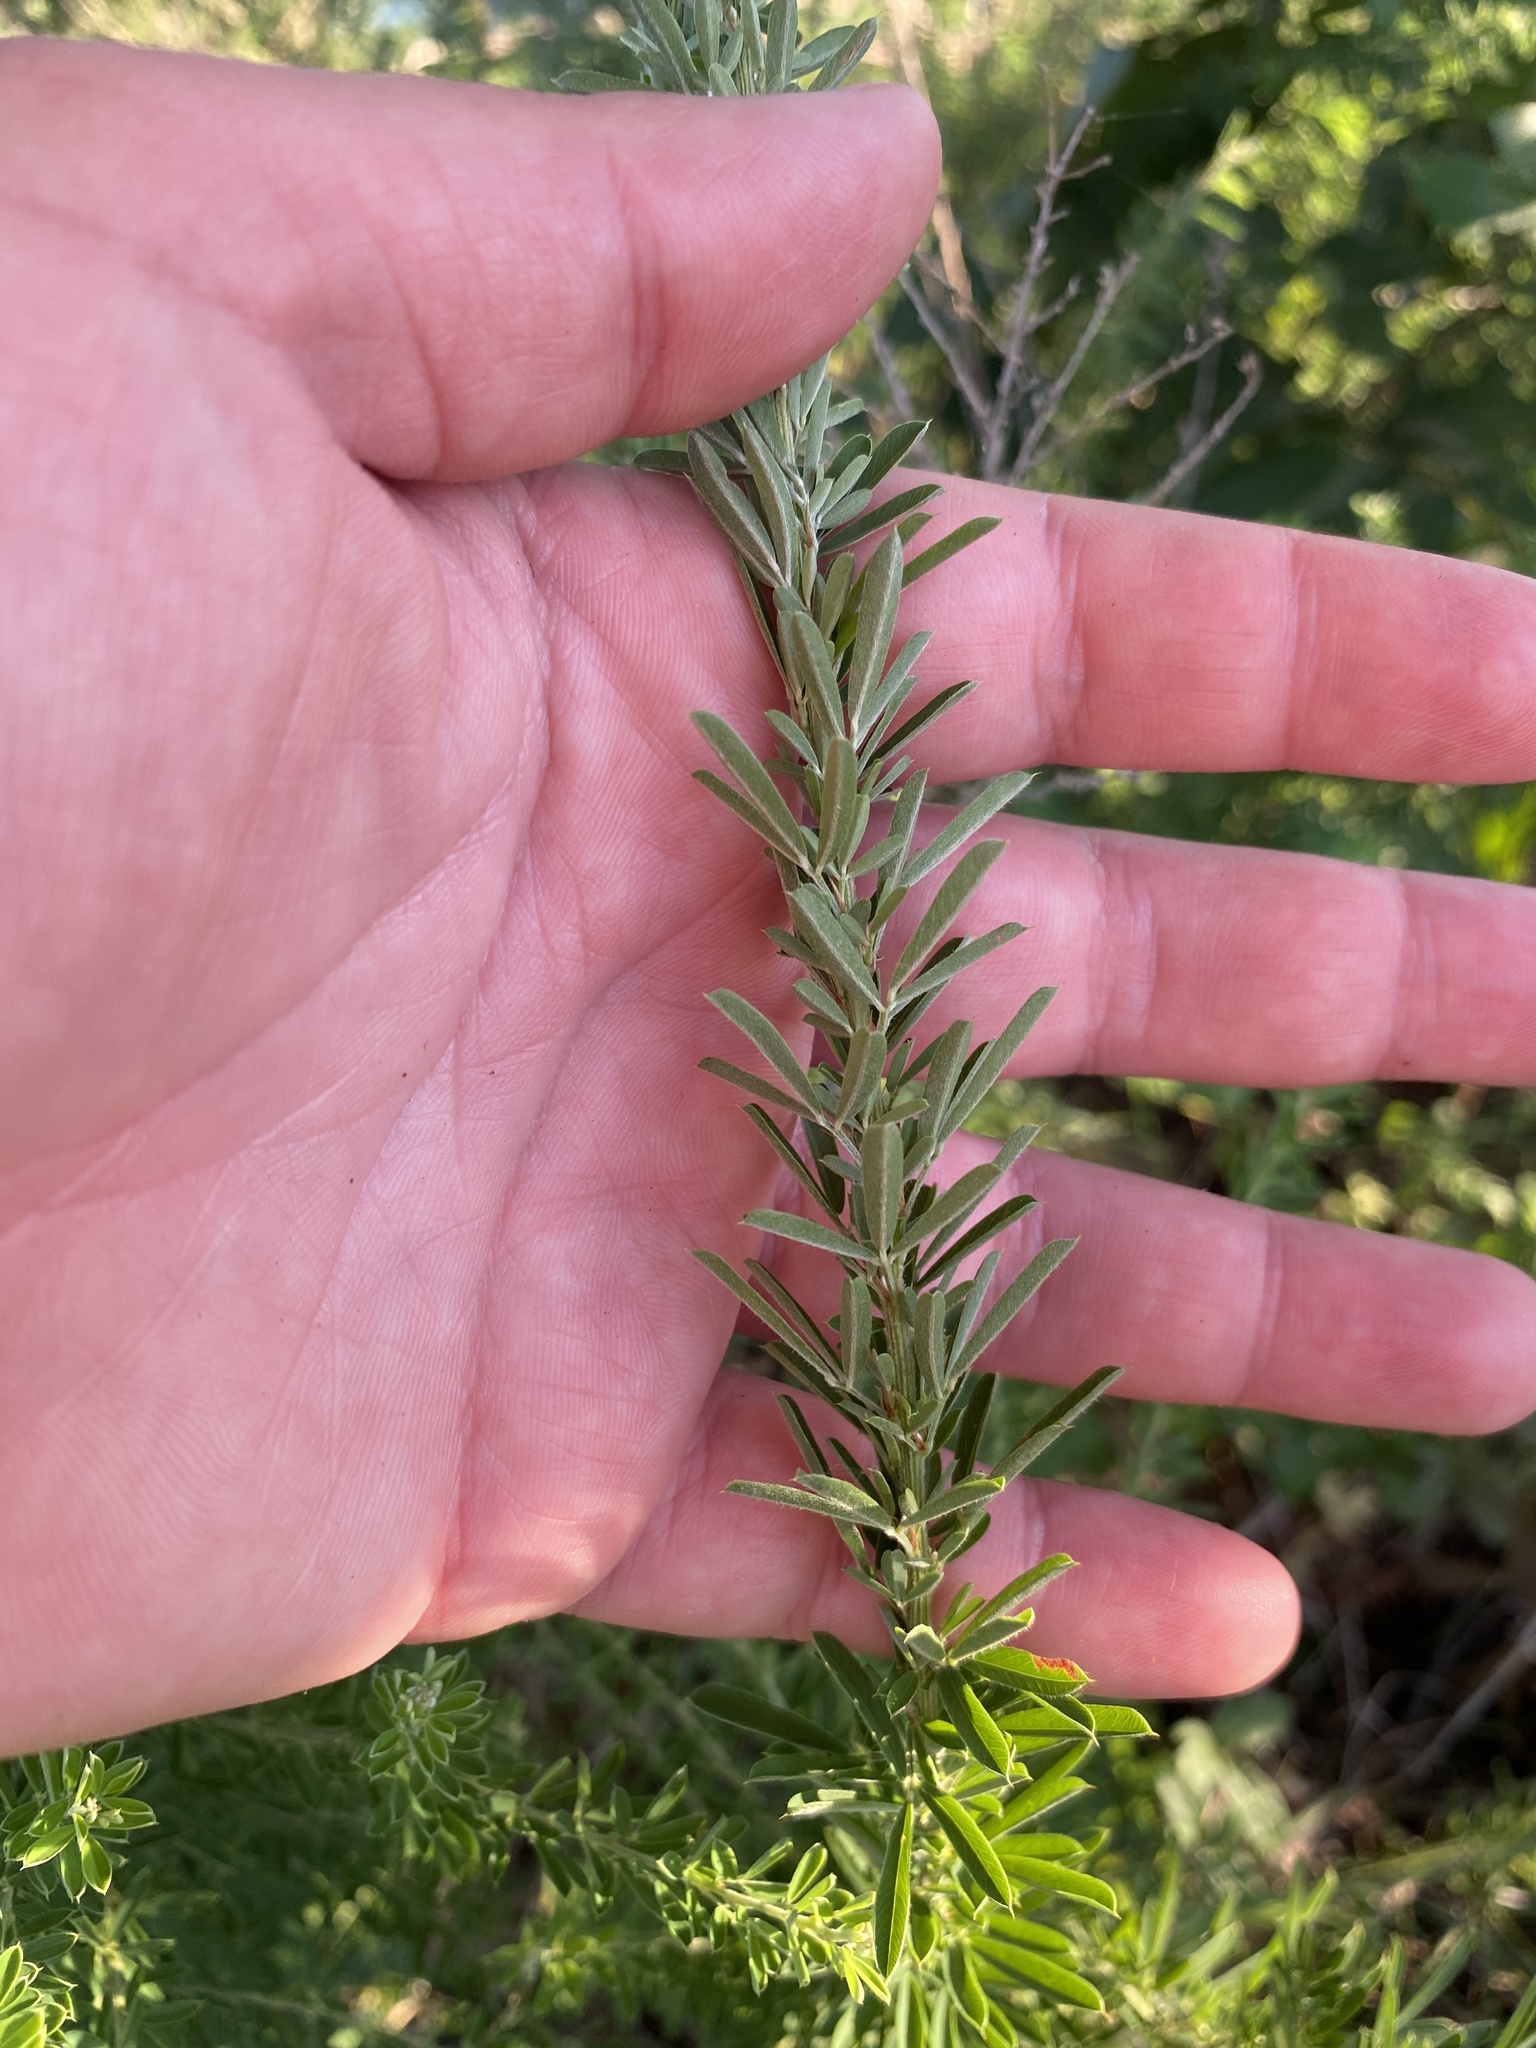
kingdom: Plantae
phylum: Tracheophyta
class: Magnoliopsida
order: Fabales
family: Fabaceae
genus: Lespedeza
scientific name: Lespedeza cuneata
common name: Chinese bush-clover
